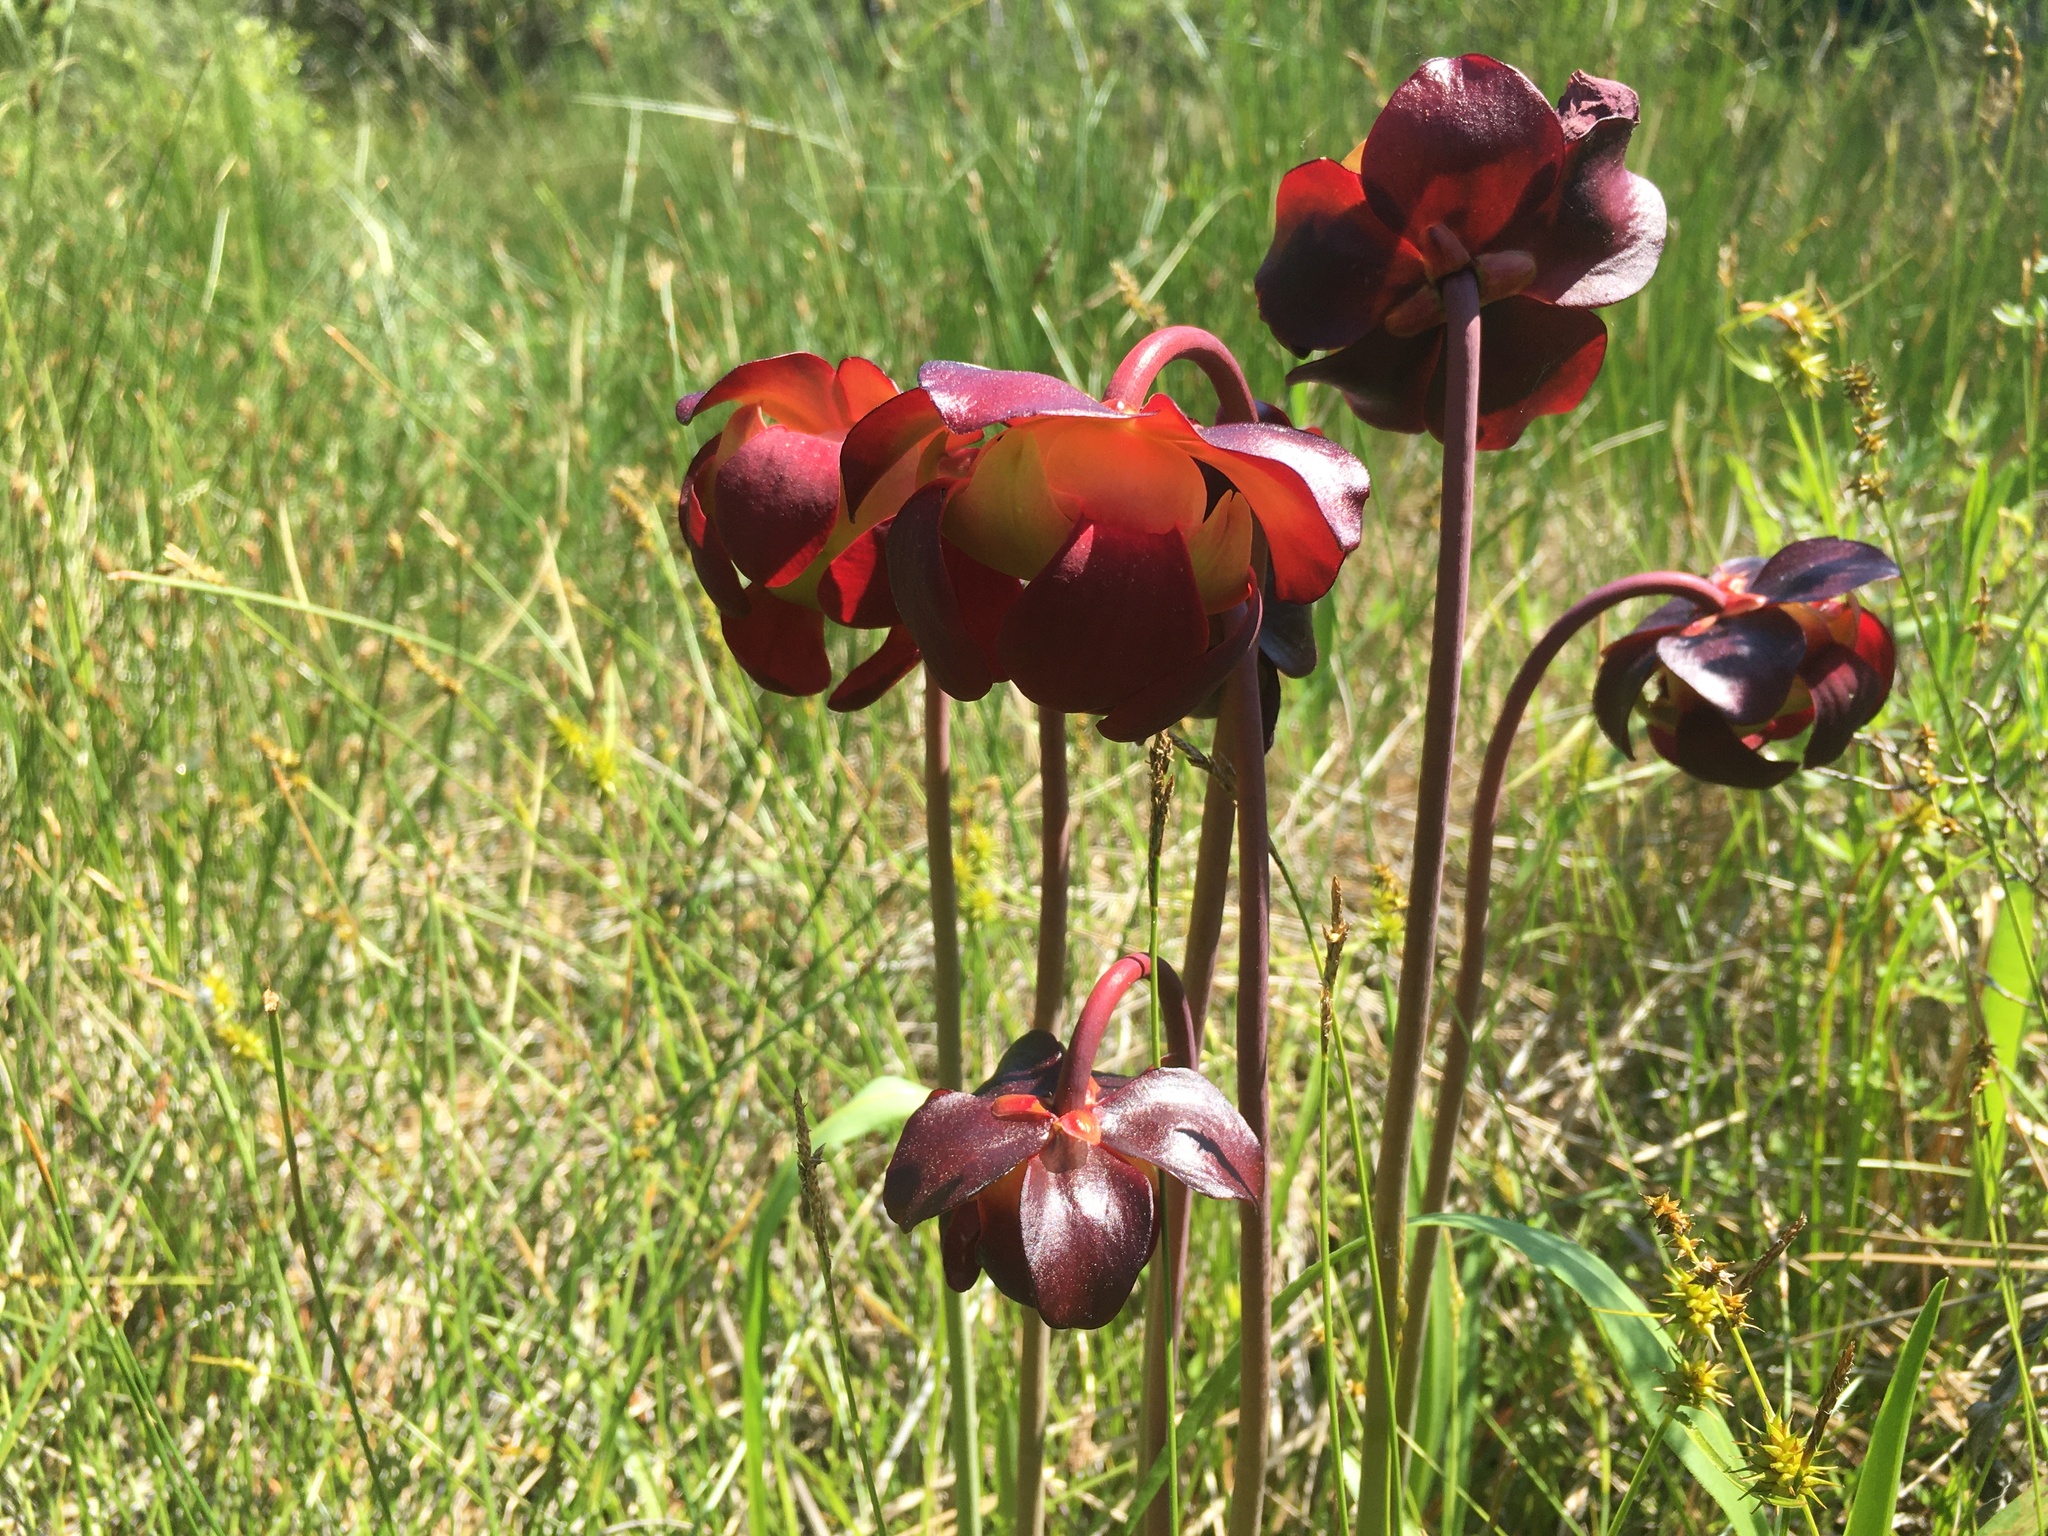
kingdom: Plantae
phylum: Tracheophyta
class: Magnoliopsida
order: Ericales
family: Sarraceniaceae
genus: Sarracenia
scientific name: Sarracenia purpurea
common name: Pitcherplant
